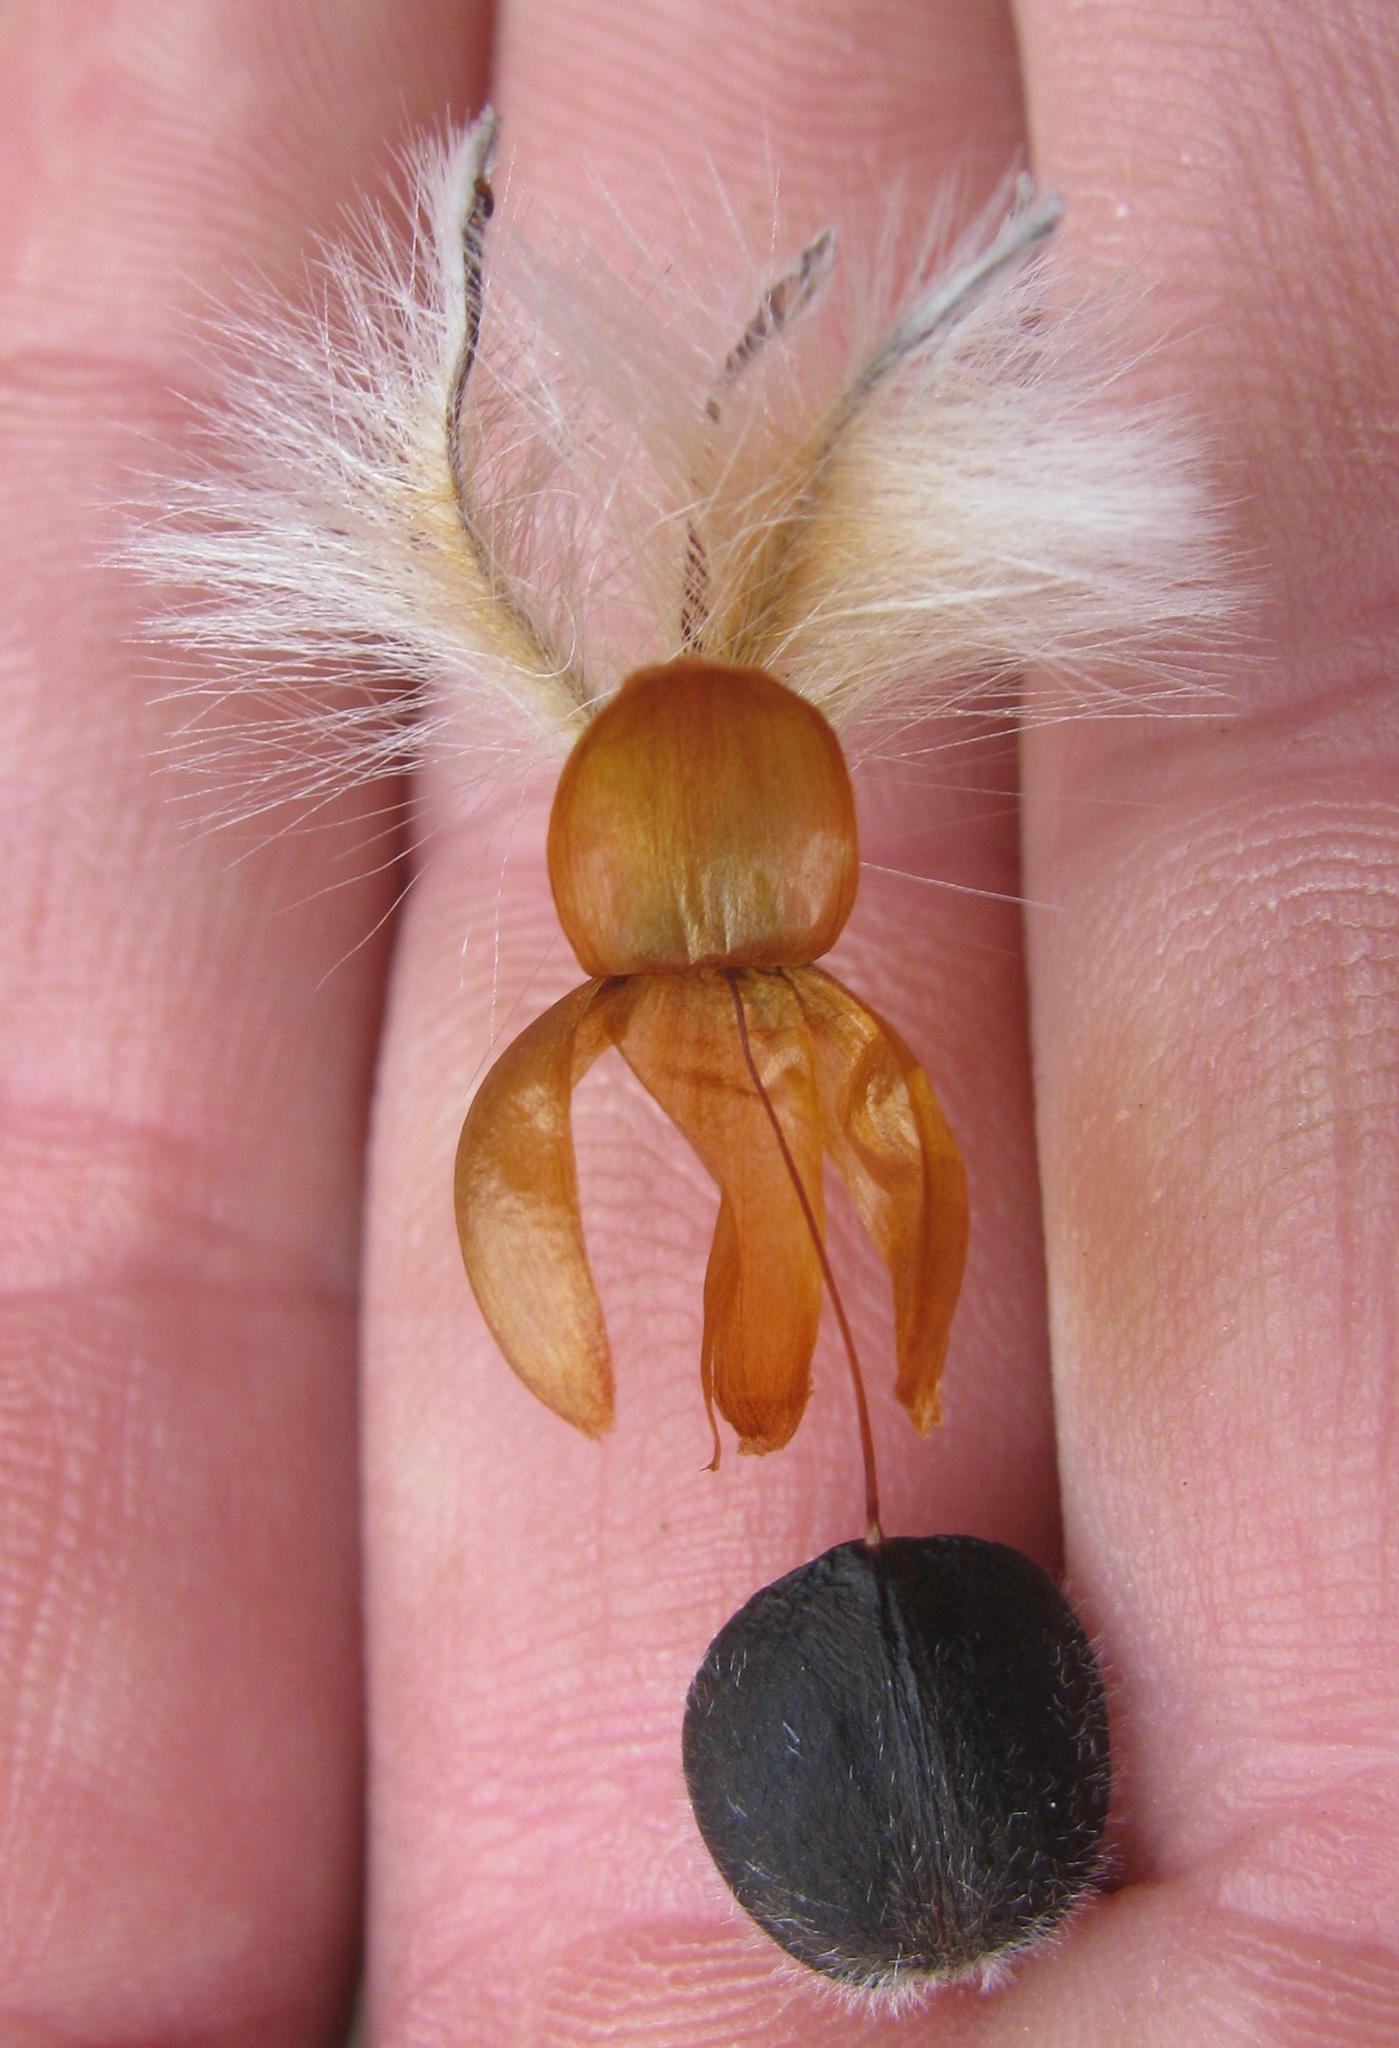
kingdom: Plantae
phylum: Tracheophyta
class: Magnoliopsida
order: Proteales
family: Proteaceae
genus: Leucadendron
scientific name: Leucadendron argenteum
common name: Cape silver tree
